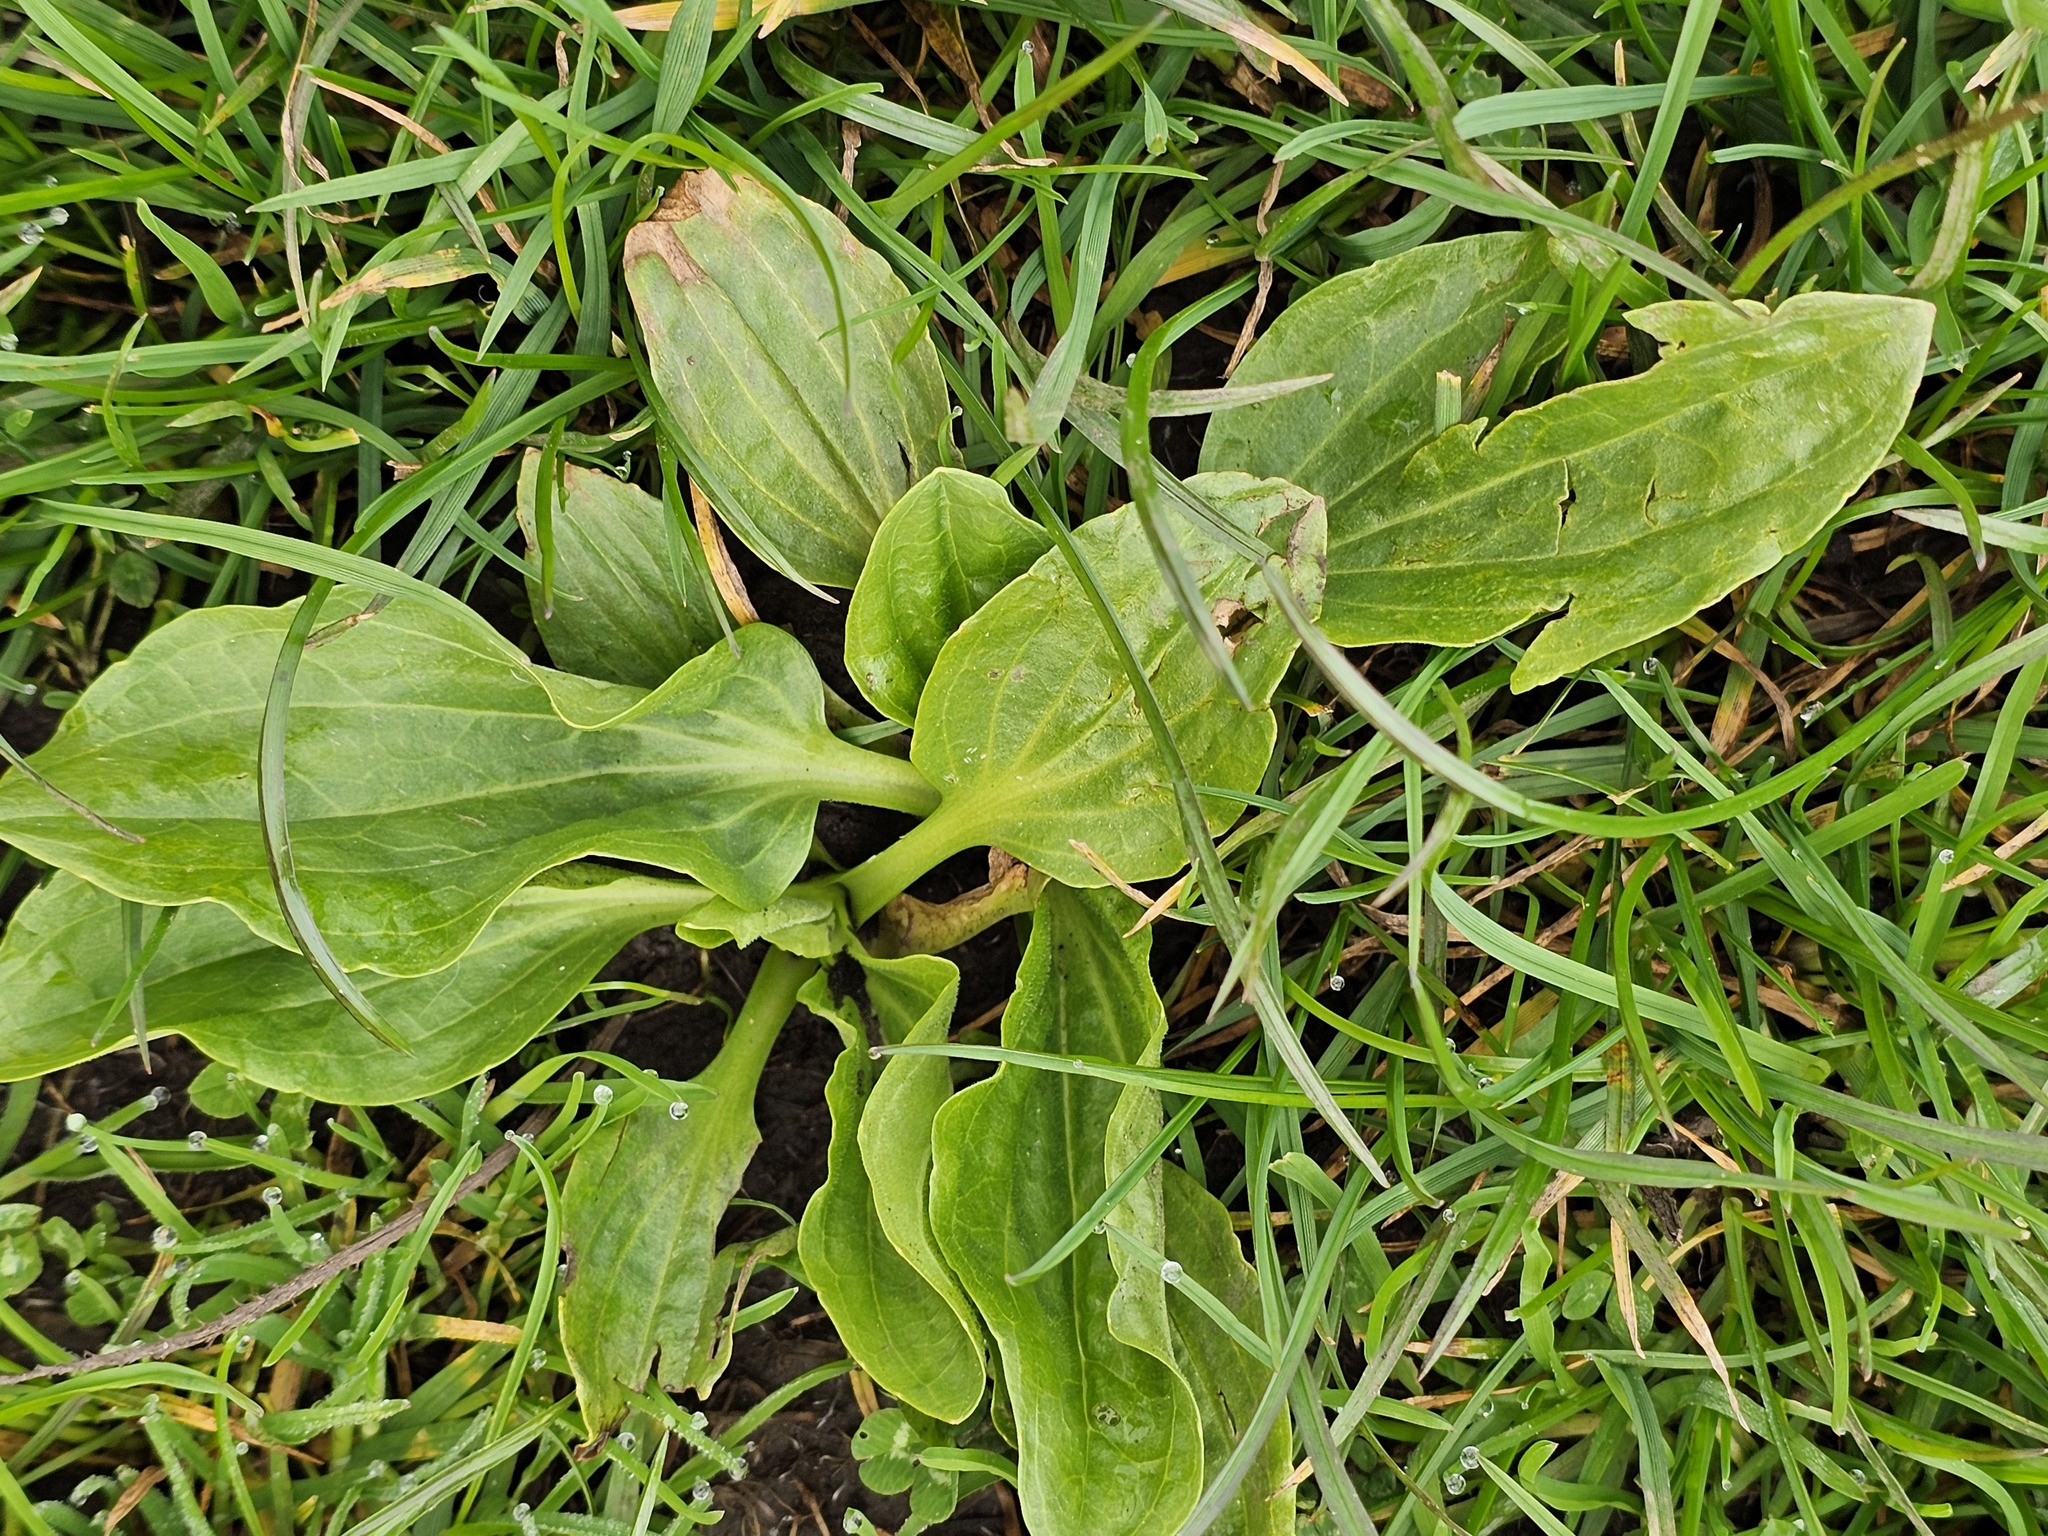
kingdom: Plantae
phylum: Tracheophyta
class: Magnoliopsida
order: Lamiales
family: Plantaginaceae
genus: Plantago
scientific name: Plantago major
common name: Common plantain
